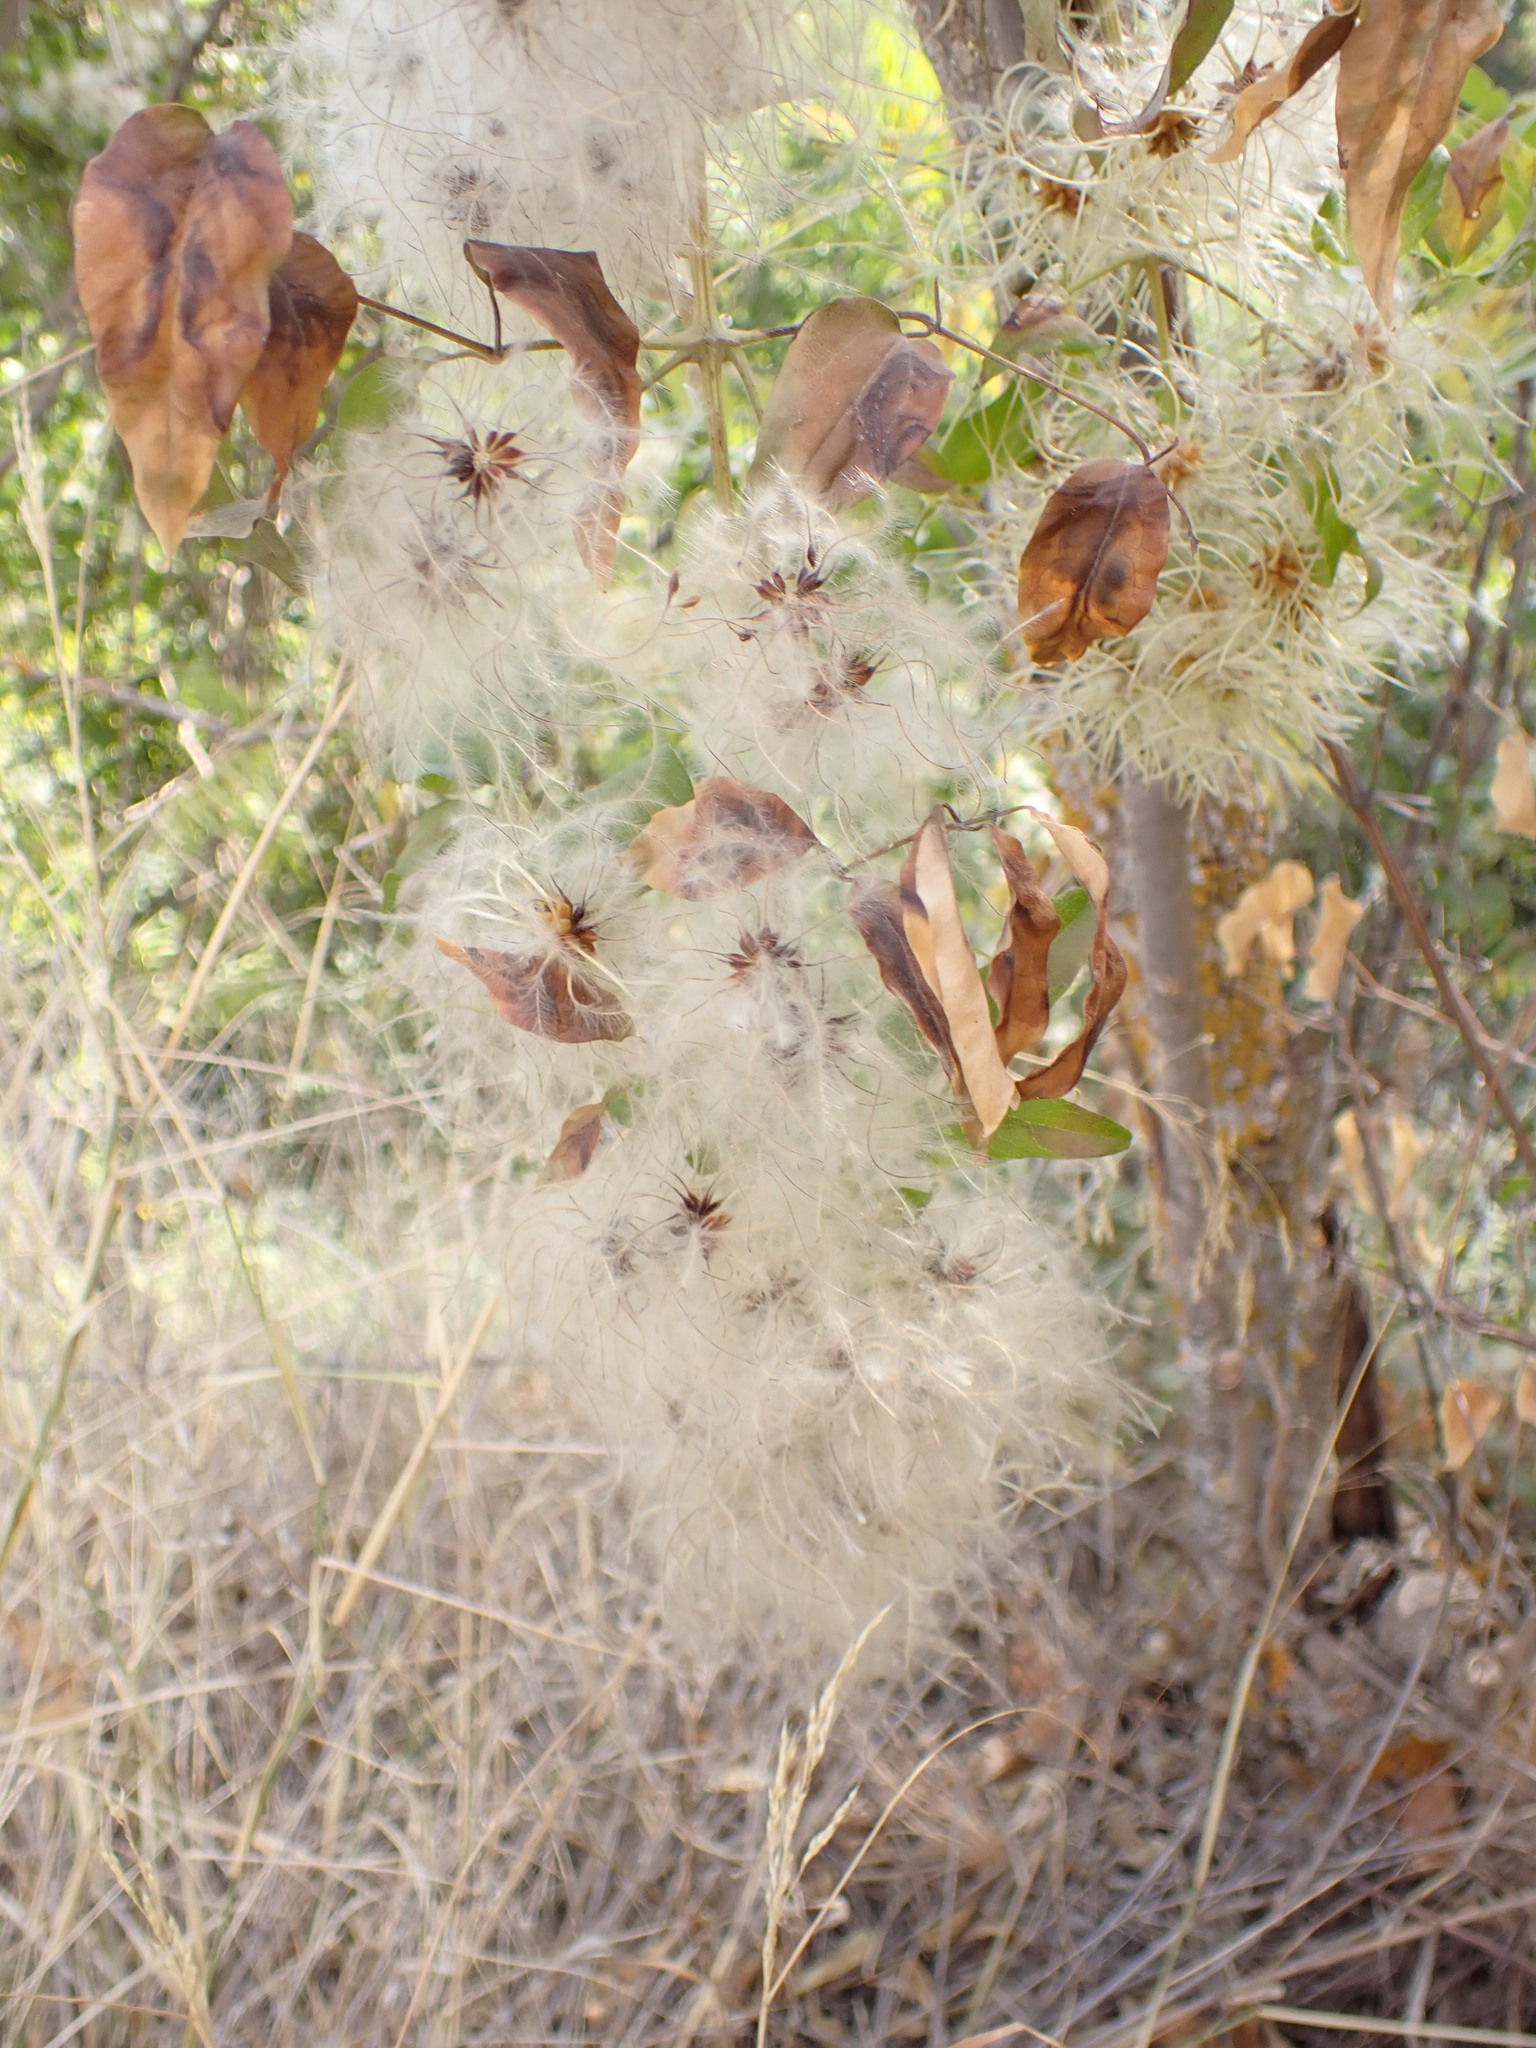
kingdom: Plantae
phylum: Tracheophyta
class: Magnoliopsida
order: Ranunculales
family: Ranunculaceae
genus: Clematis
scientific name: Clematis vitalba
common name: Evergreen clematis
